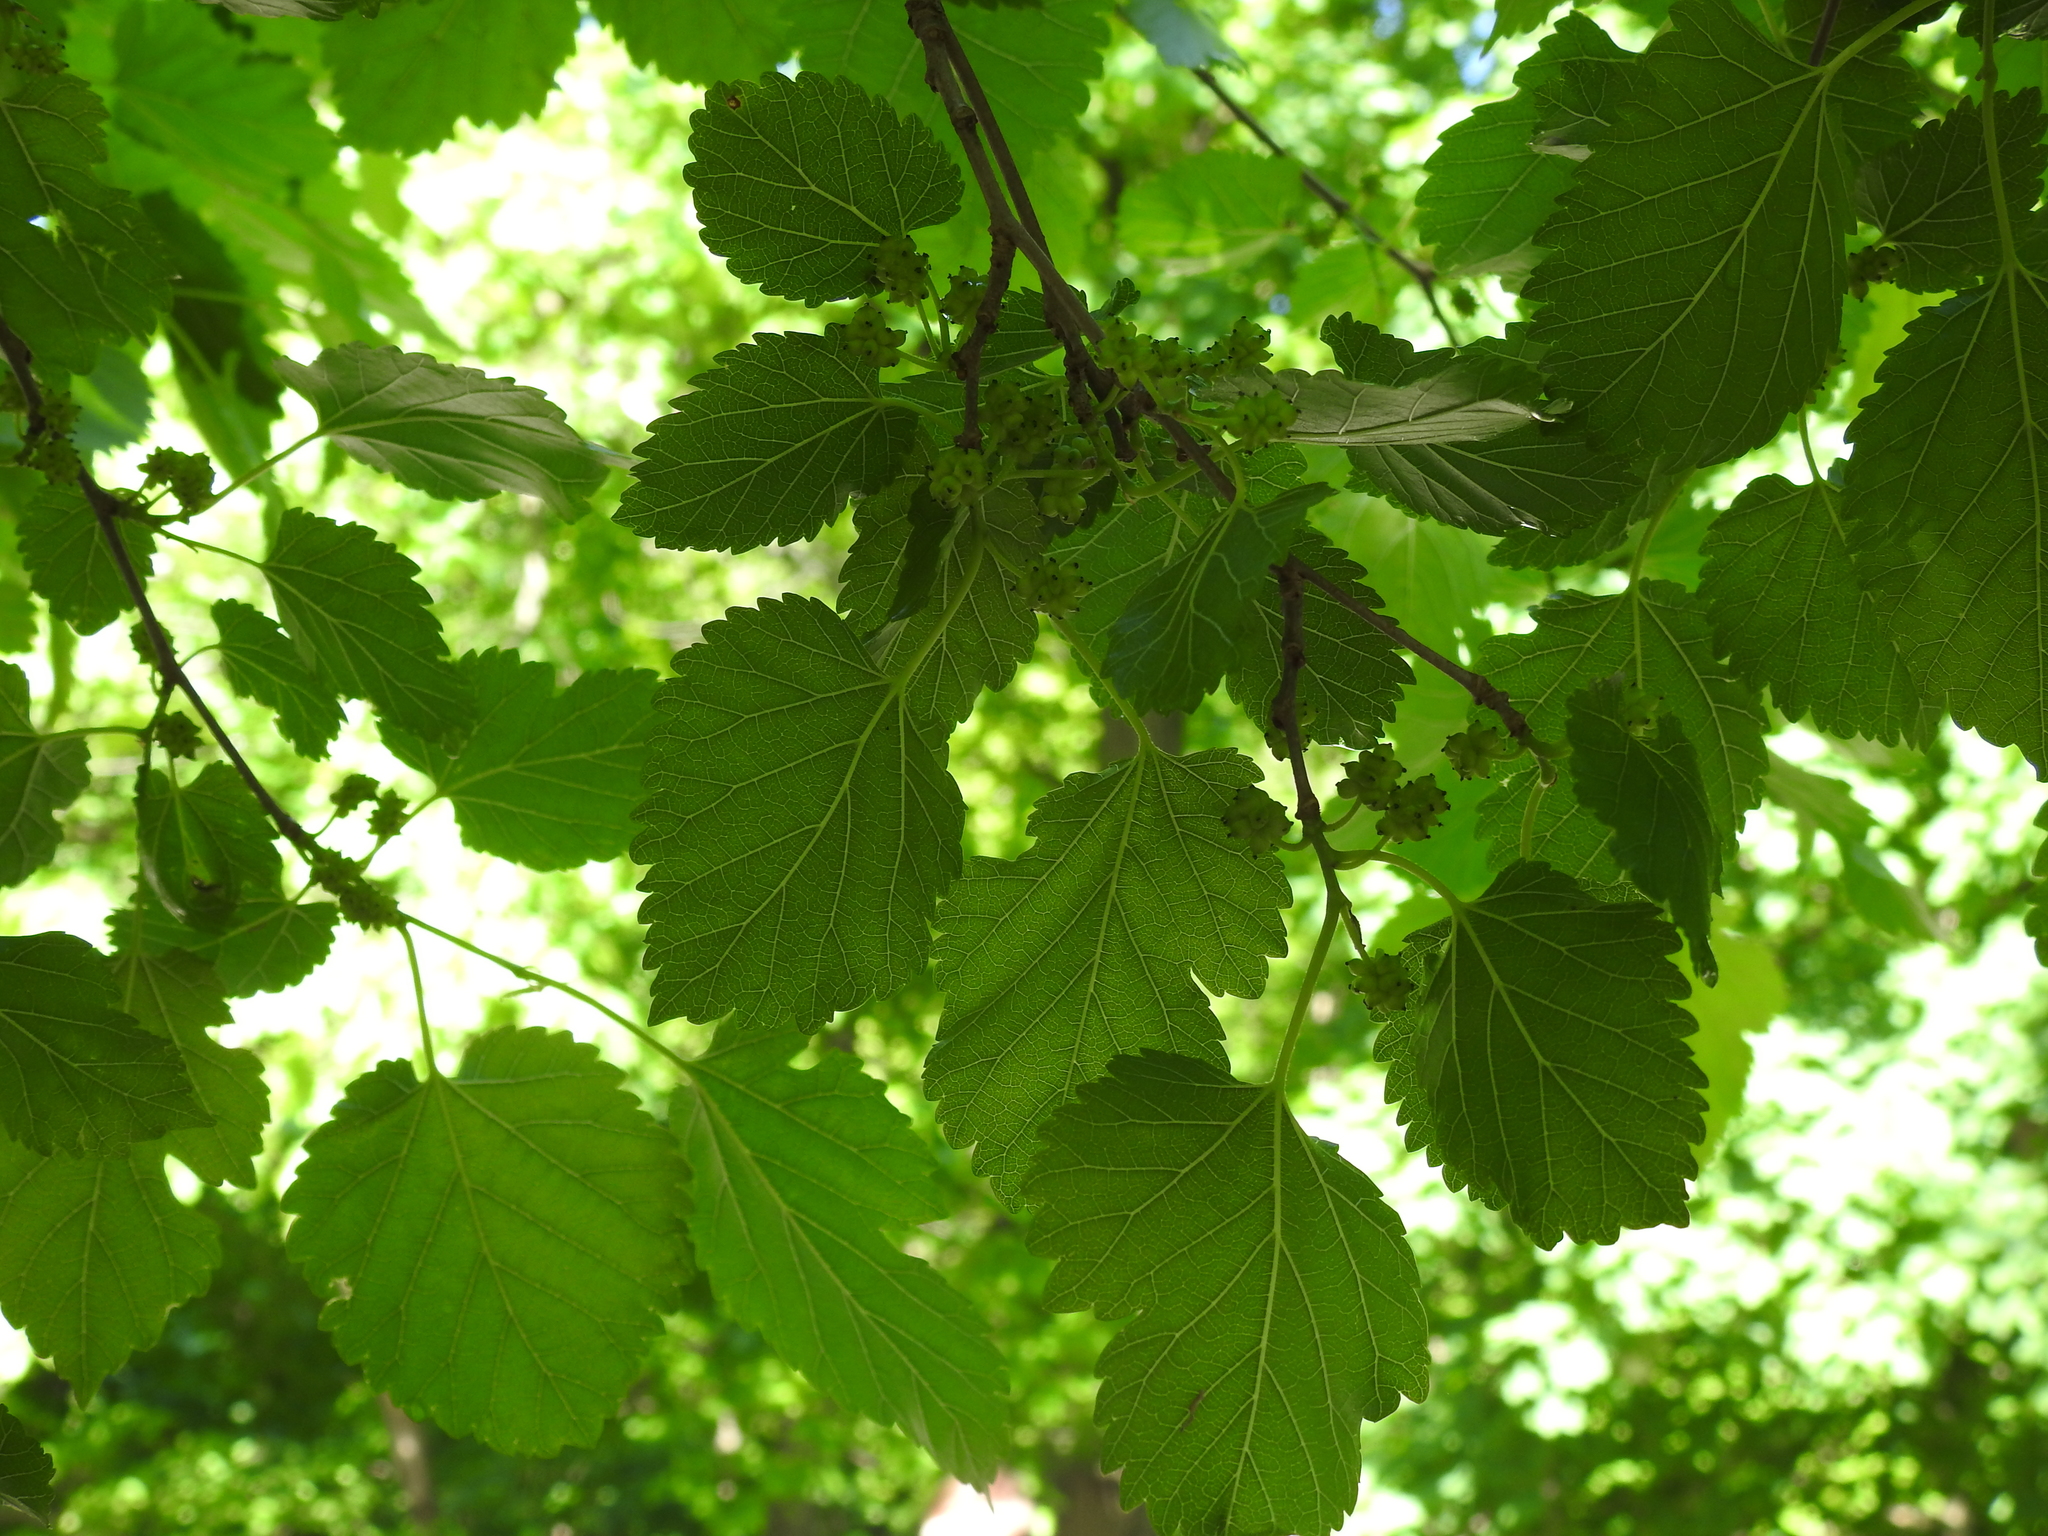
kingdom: Plantae
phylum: Tracheophyta
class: Magnoliopsida
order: Rosales
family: Moraceae
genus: Morus
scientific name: Morus alba
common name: White mulberry
